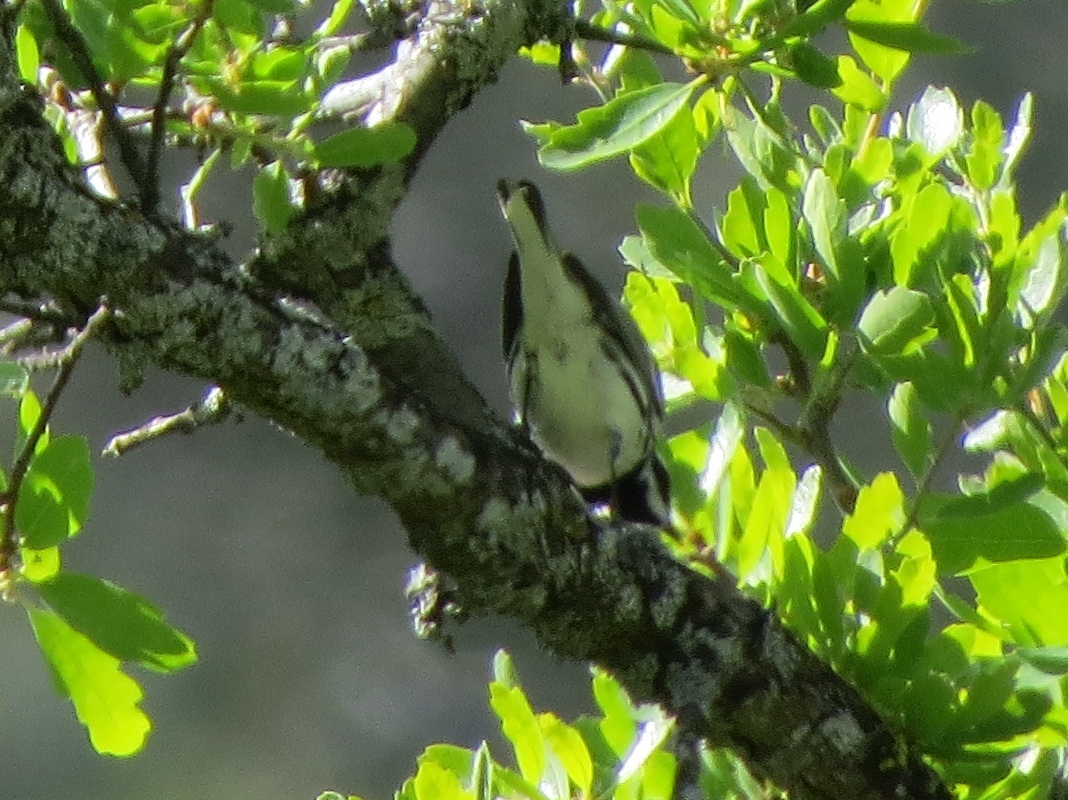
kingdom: Animalia
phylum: Chordata
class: Aves
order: Passeriformes
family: Parulidae
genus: Setophaga
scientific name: Setophaga nigrescens
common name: Black-throated gray warbler
